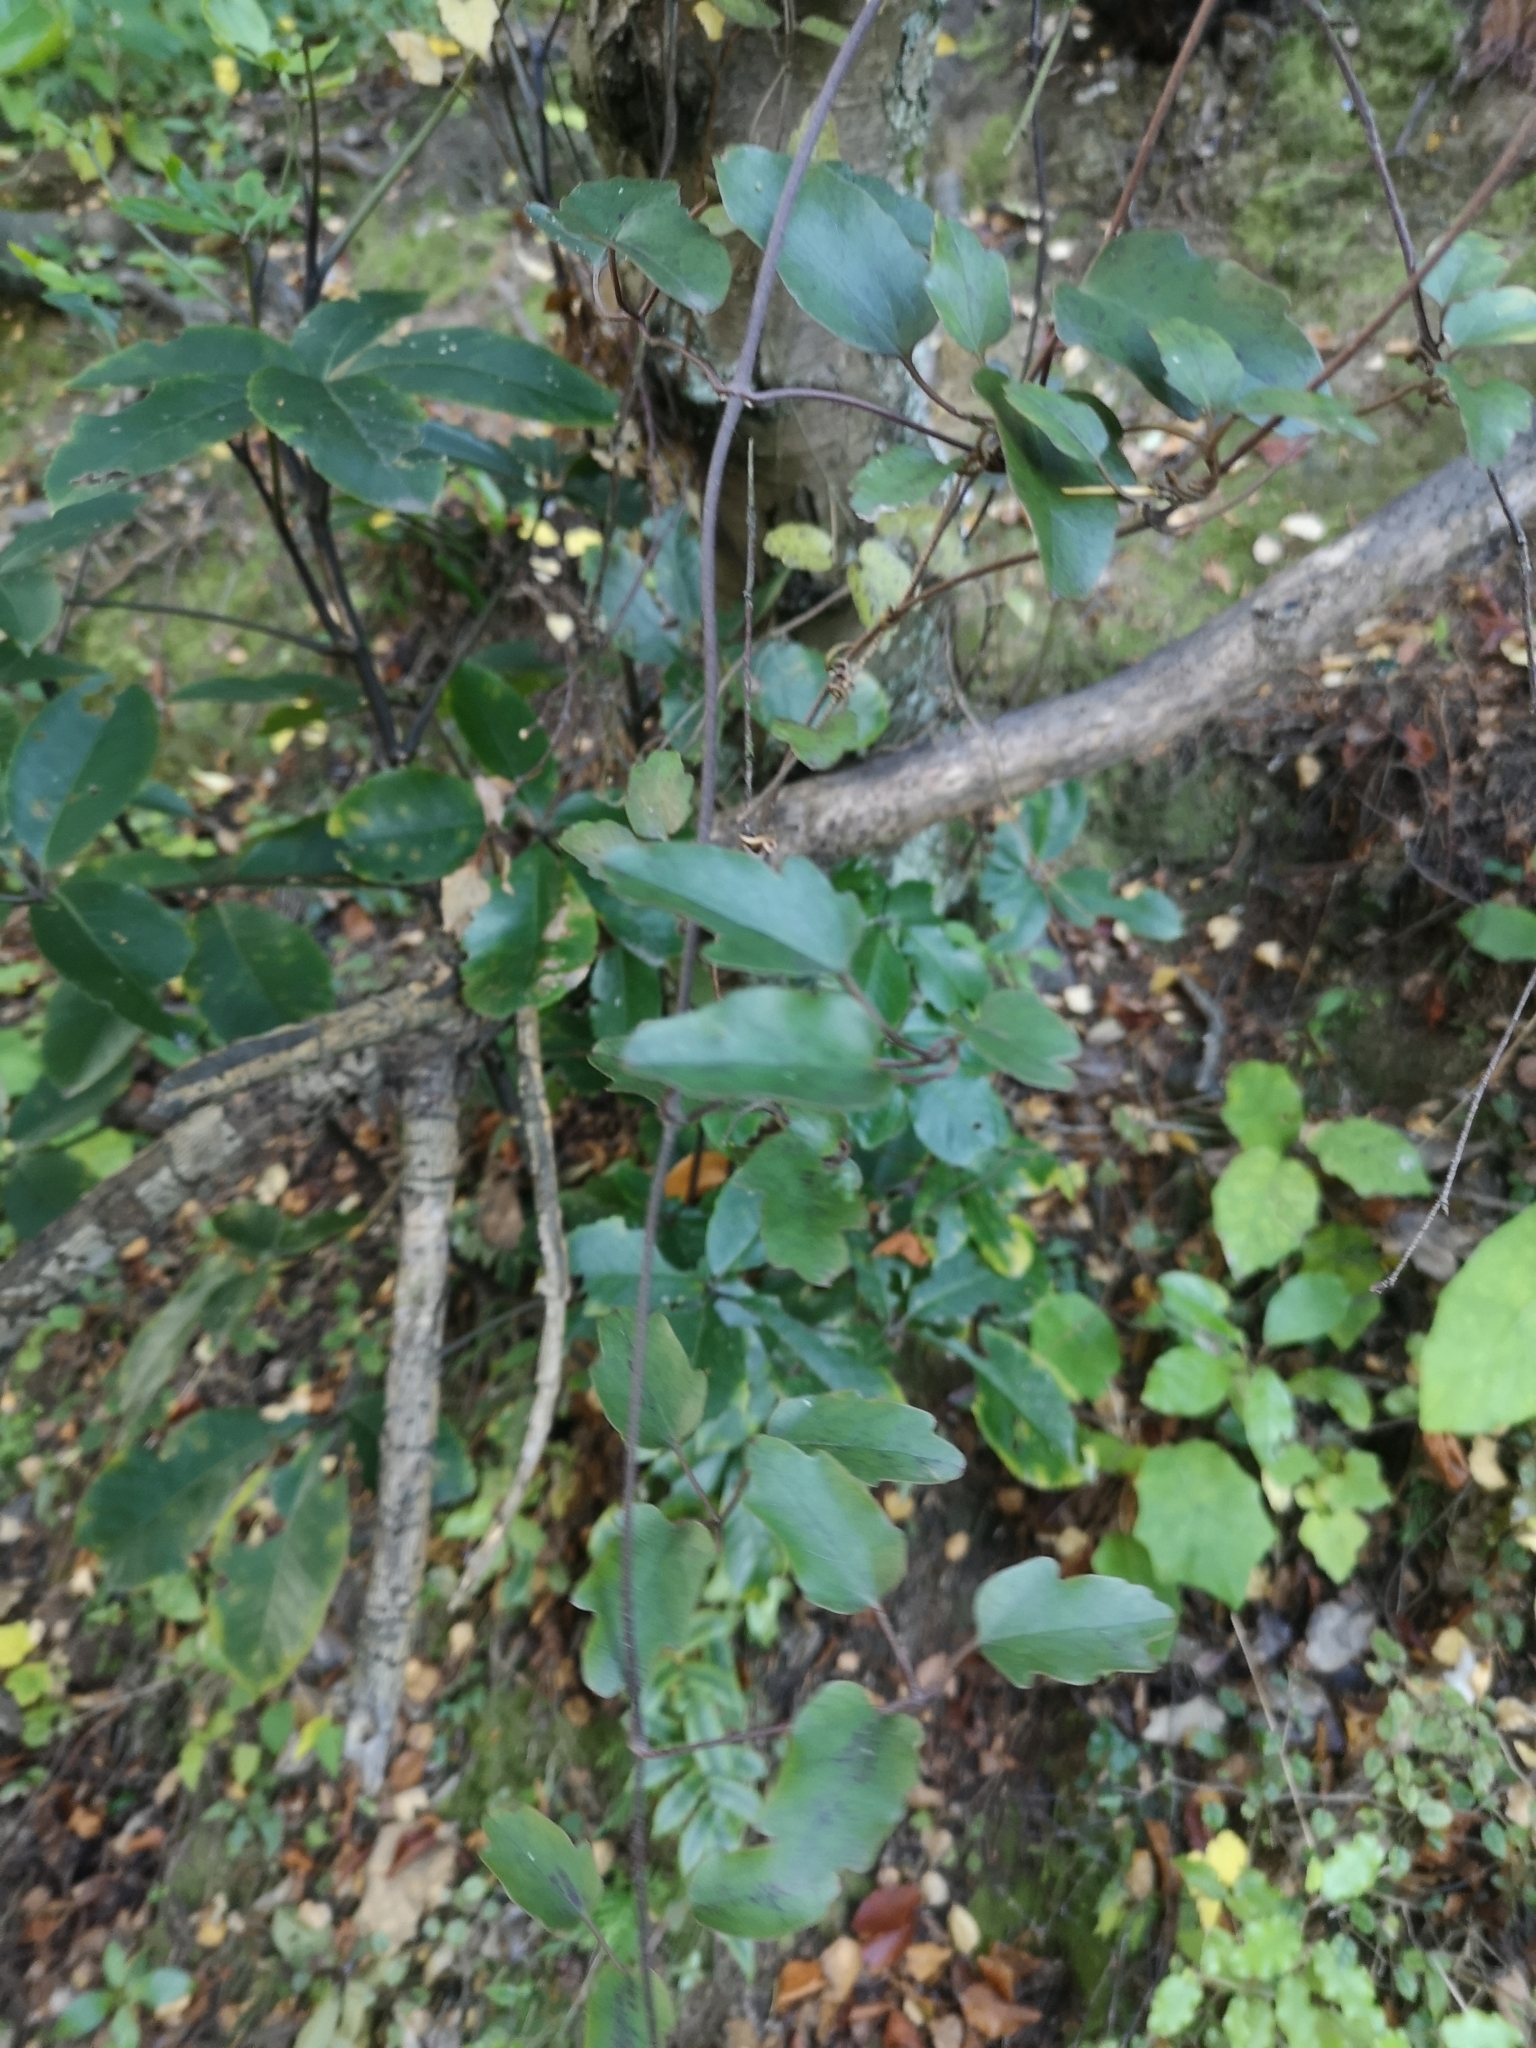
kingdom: Plantae
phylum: Tracheophyta
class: Magnoliopsida
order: Ranunculales
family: Ranunculaceae
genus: Clematis
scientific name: Clematis paniculata
